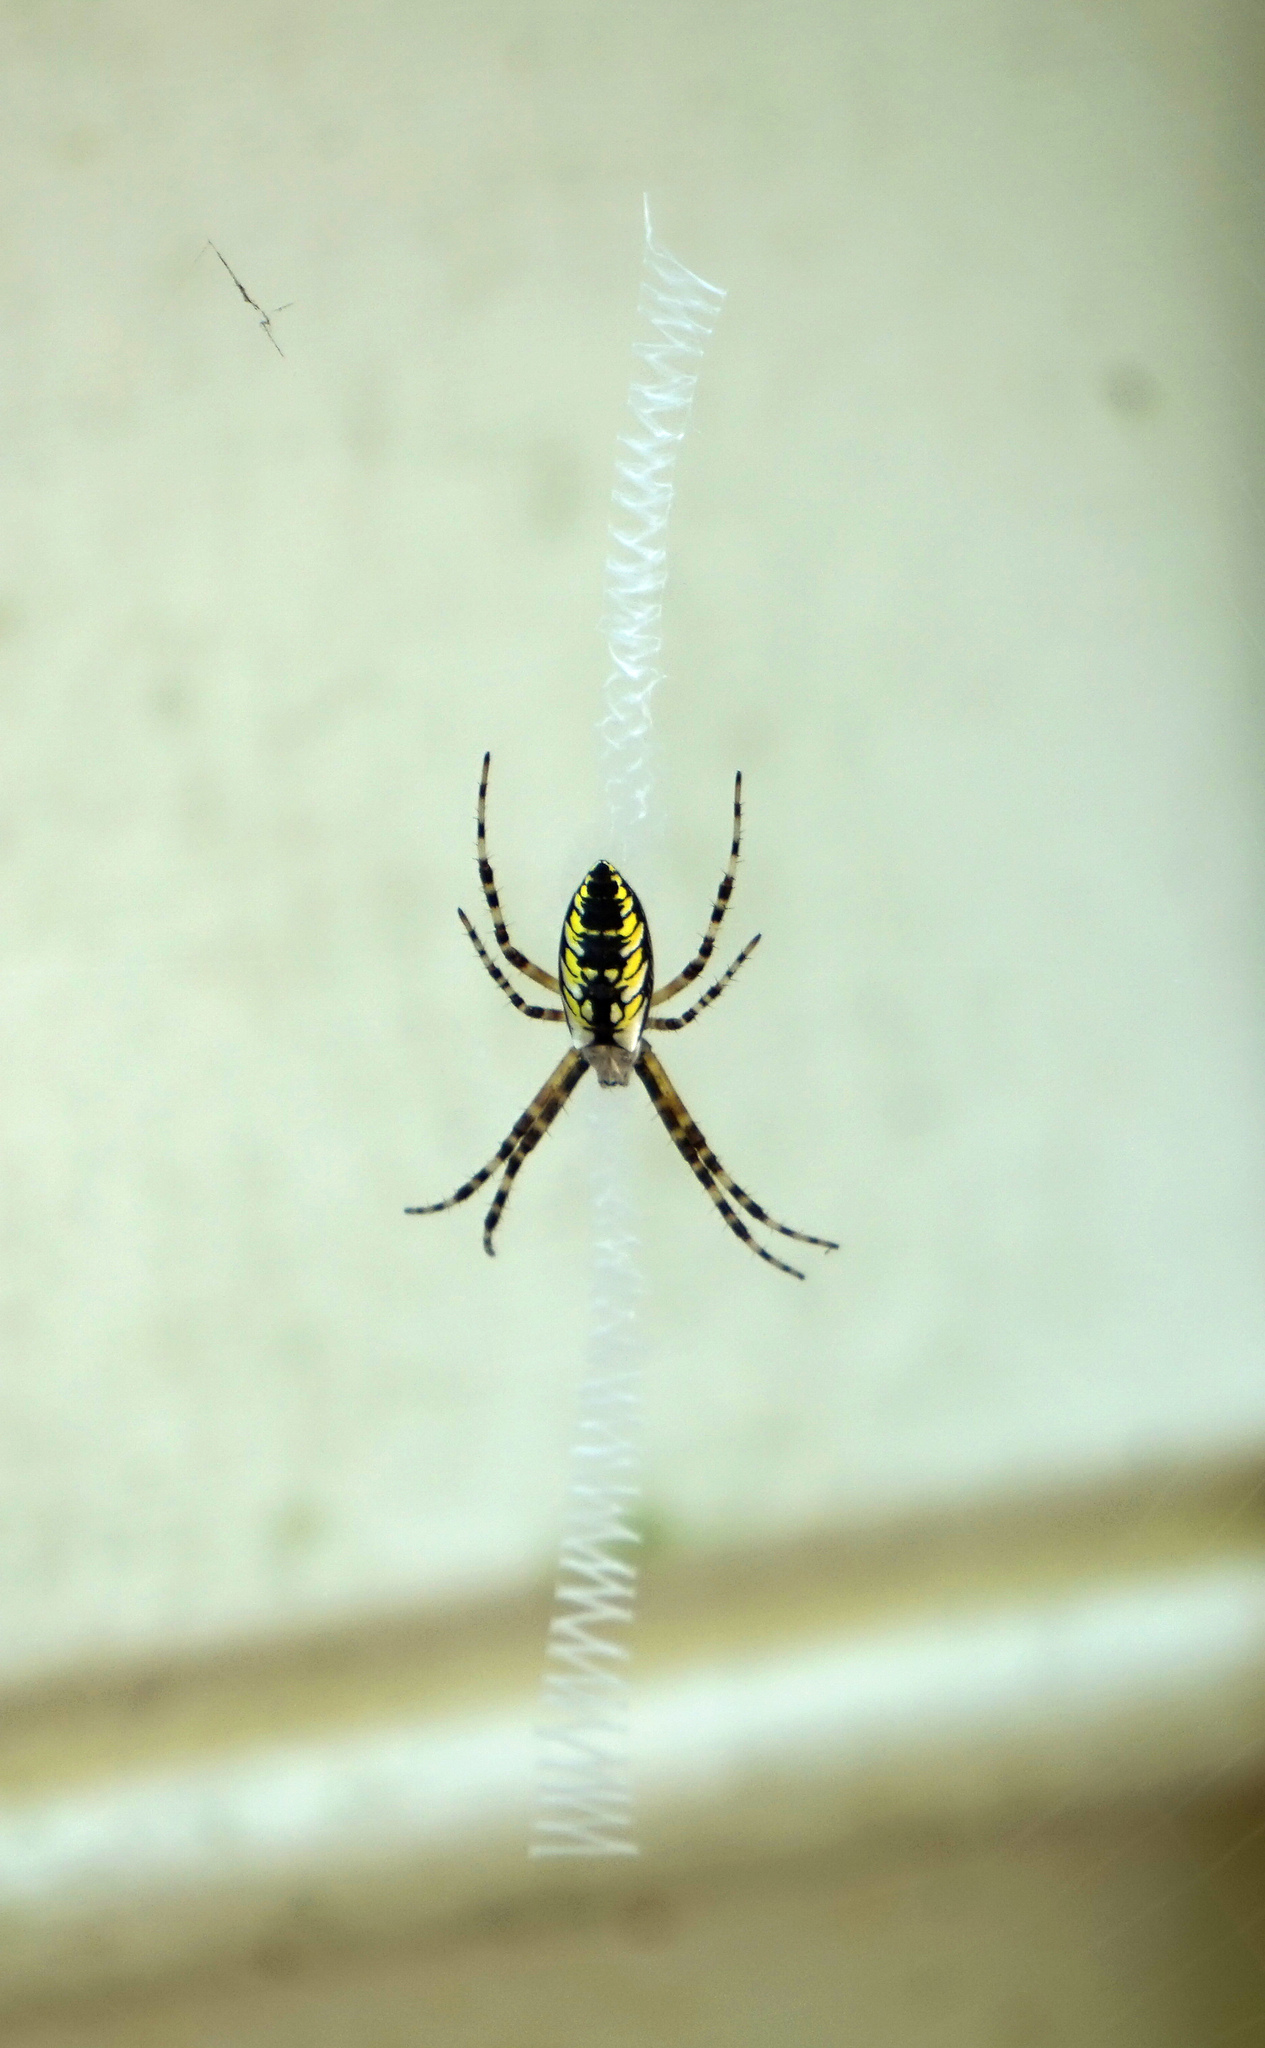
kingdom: Animalia
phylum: Arthropoda
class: Arachnida
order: Araneae
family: Araneidae
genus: Argiope
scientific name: Argiope aurantia
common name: Orb weavers
